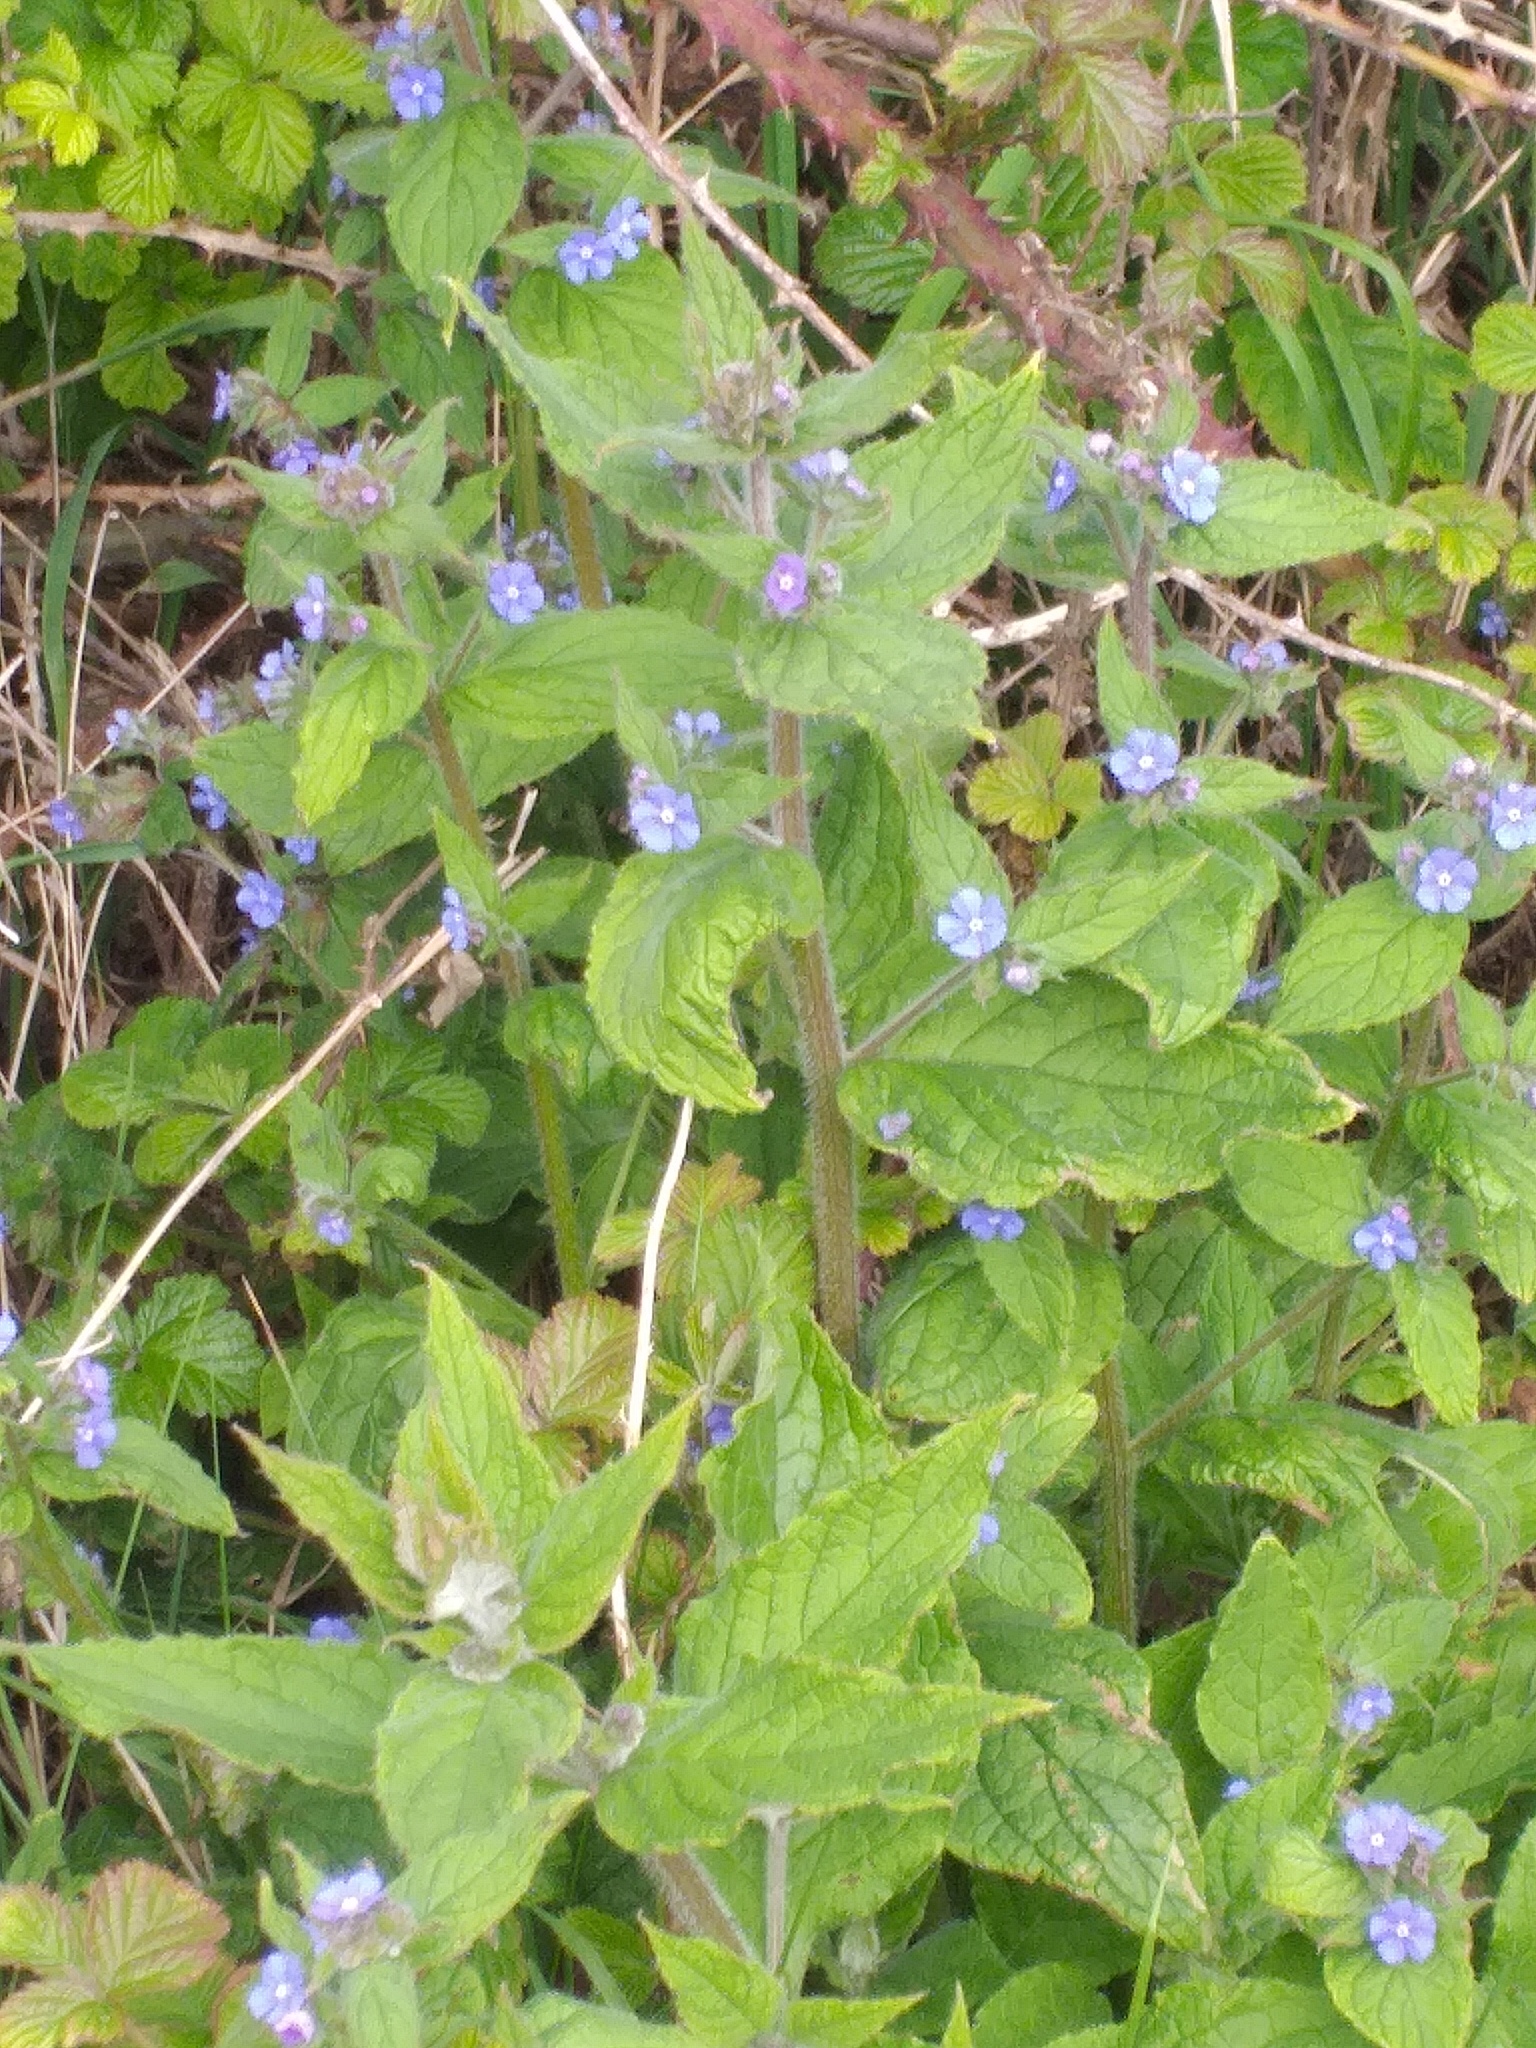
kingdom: Plantae
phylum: Tracheophyta
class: Magnoliopsida
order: Boraginales
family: Boraginaceae
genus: Pentaglottis
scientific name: Pentaglottis sempervirens
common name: Green alkanet
